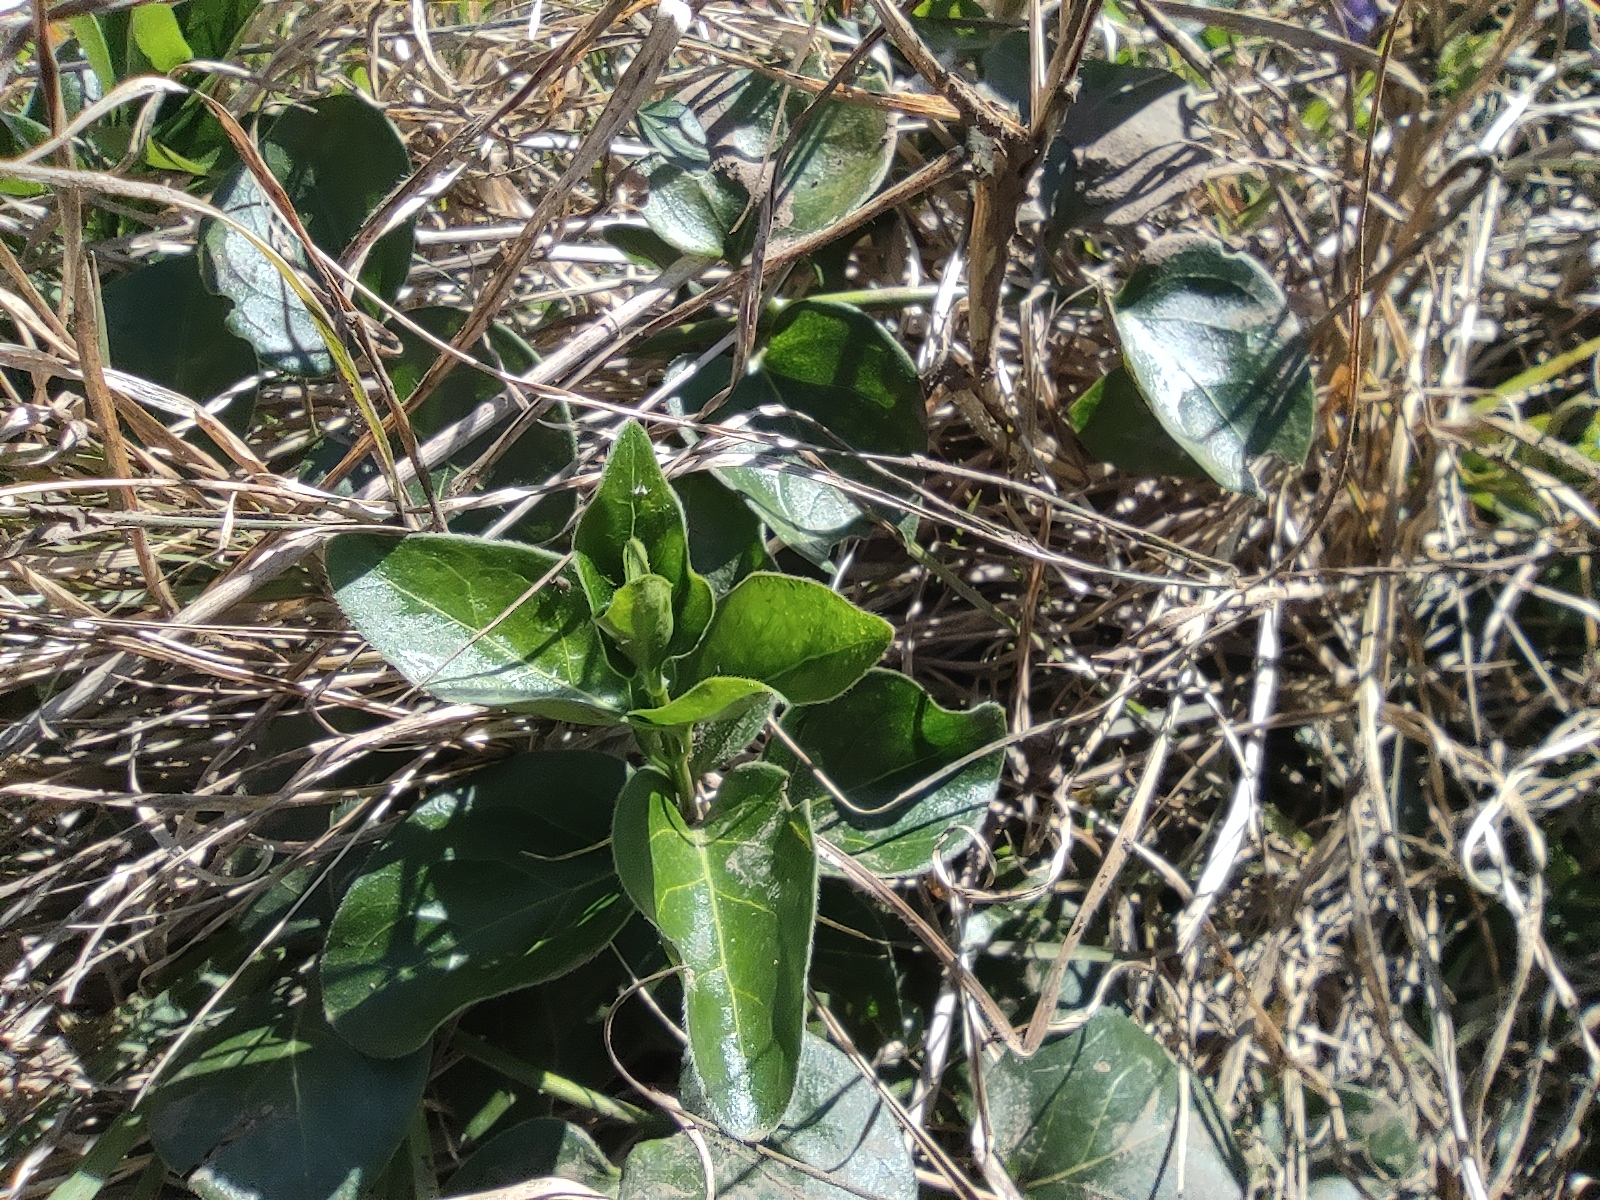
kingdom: Plantae
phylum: Tracheophyta
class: Magnoliopsida
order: Gentianales
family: Apocynaceae
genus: Vinca
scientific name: Vinca major
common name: Greater periwinkle
